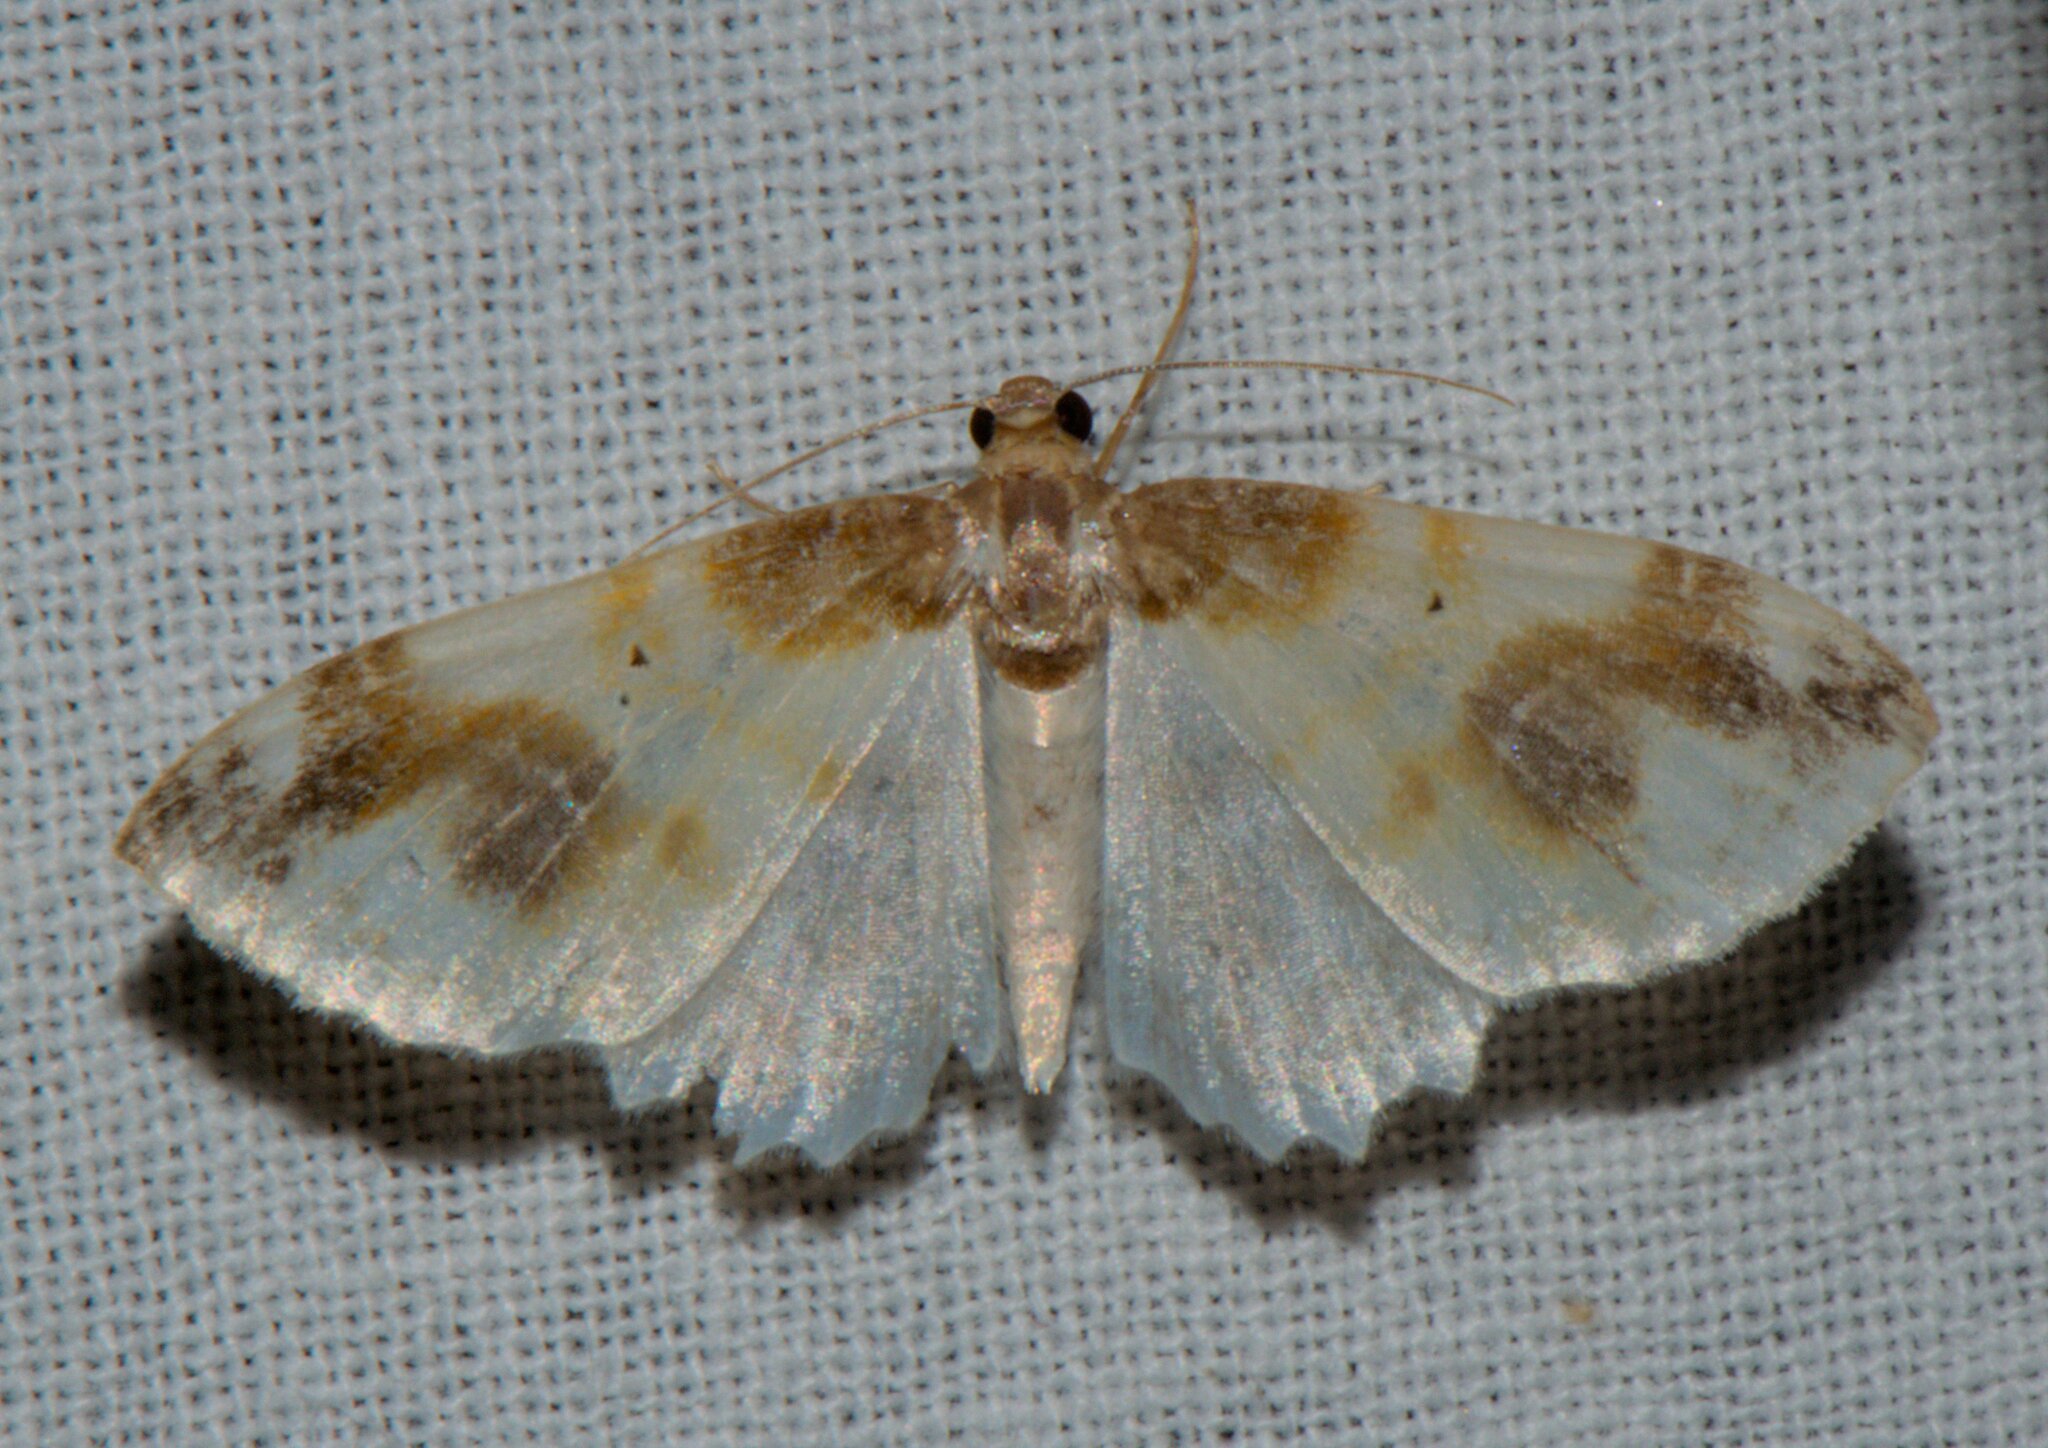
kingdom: Animalia
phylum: Arthropoda
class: Insecta
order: Lepidoptera
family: Geometridae
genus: Agnibesa
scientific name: Agnibesa pictaria
